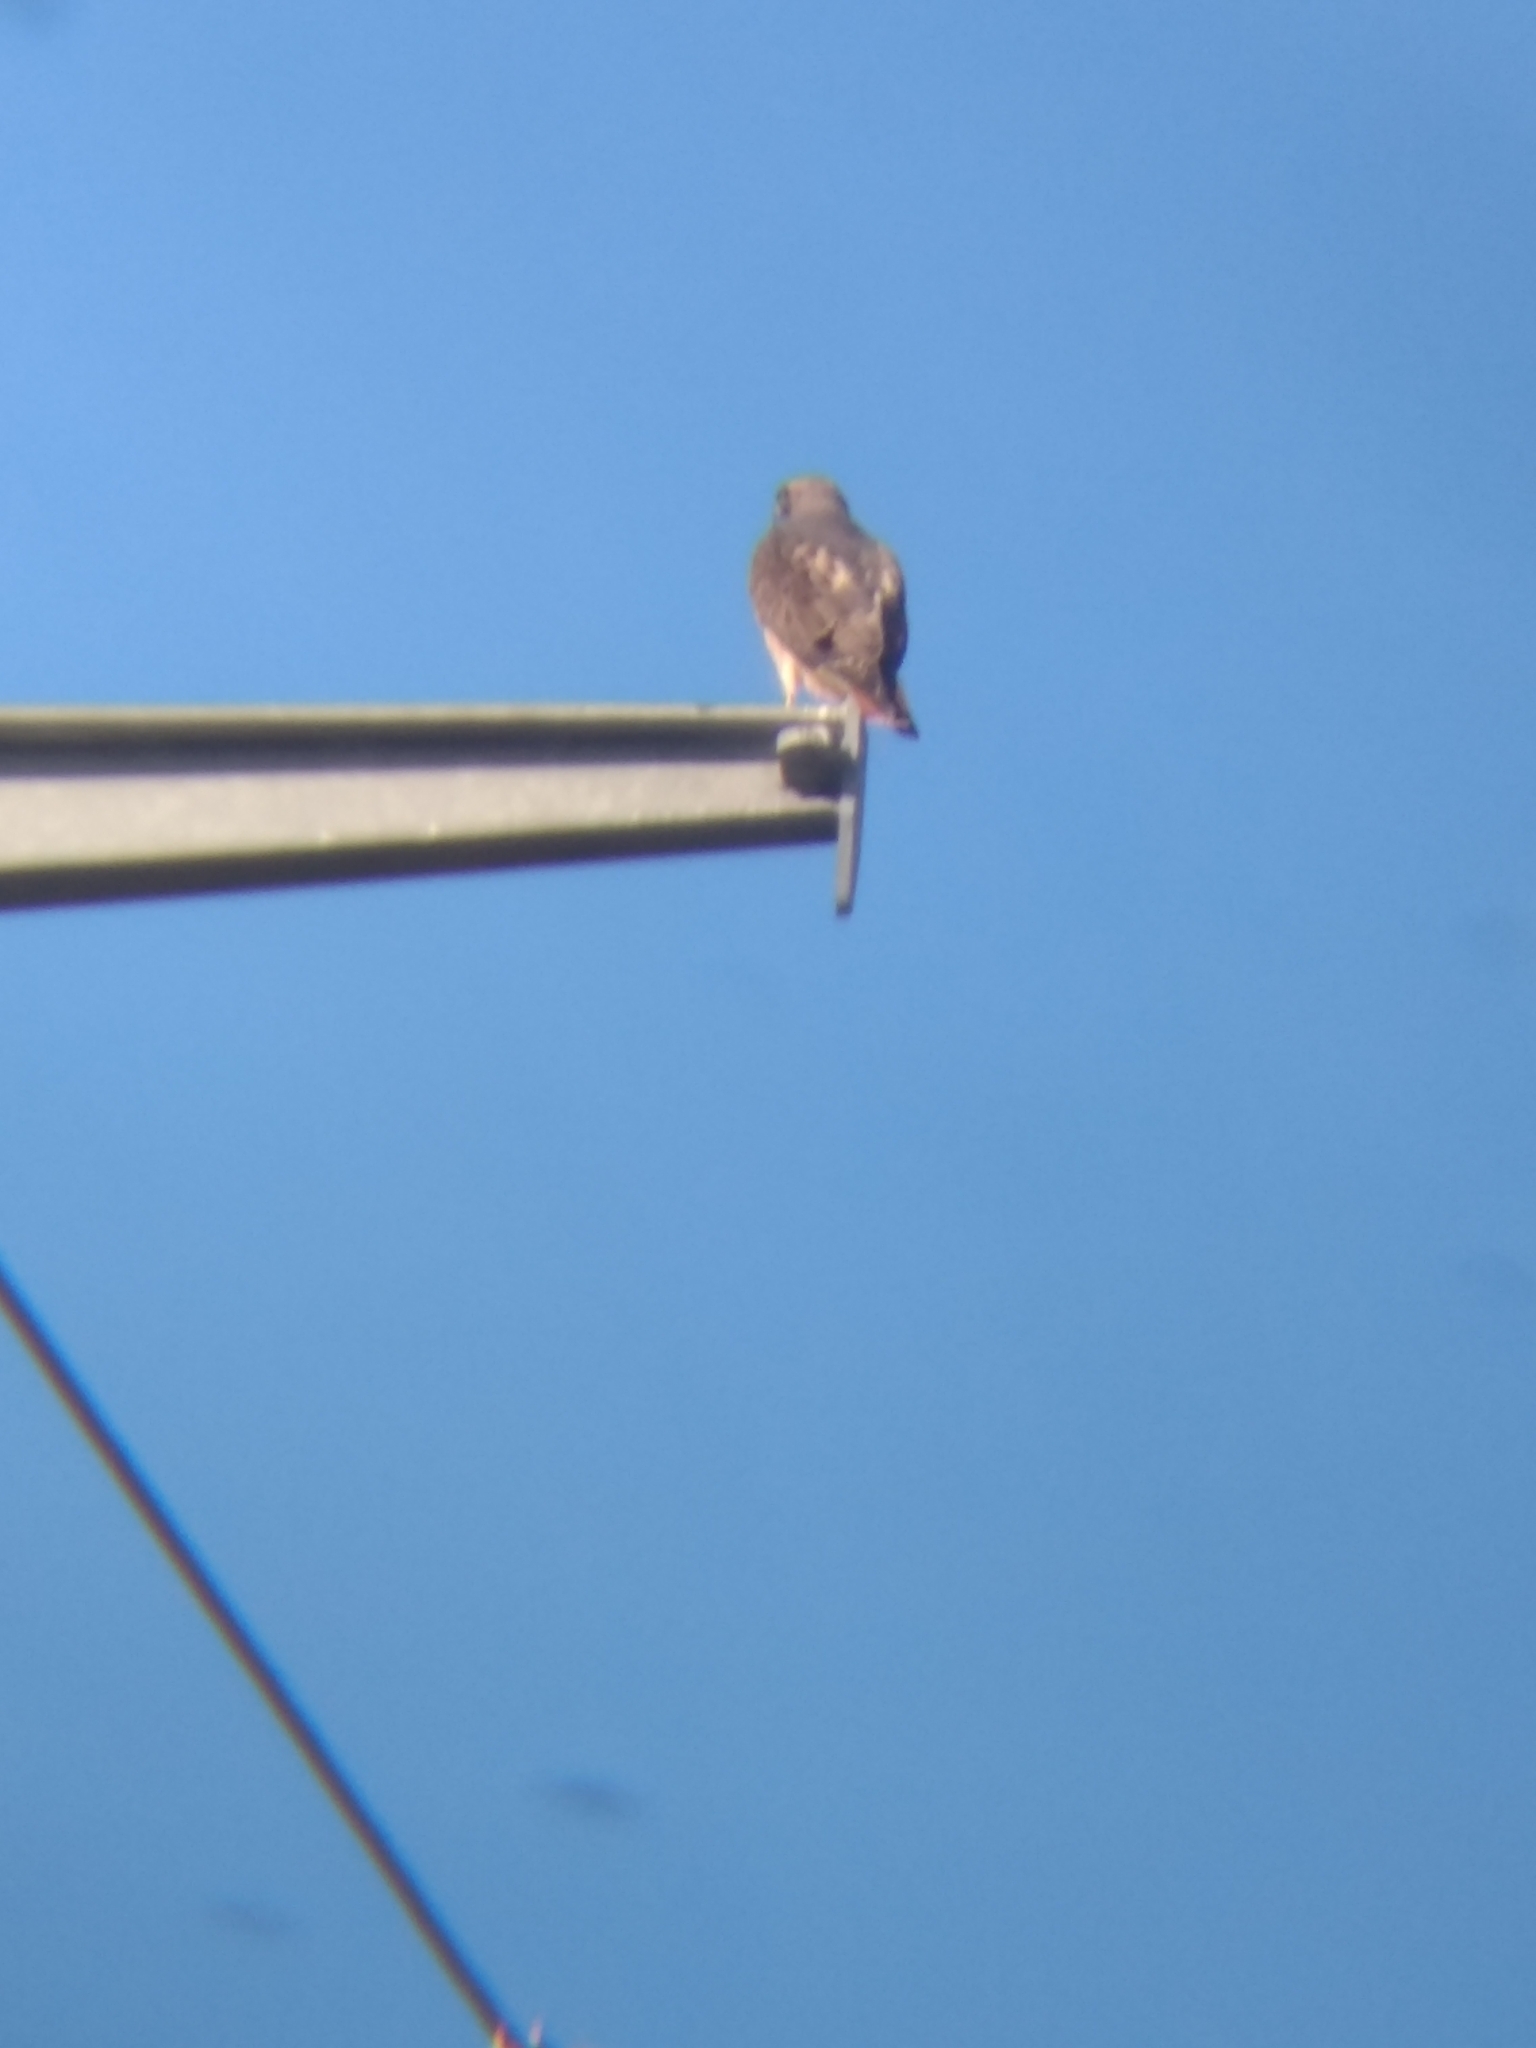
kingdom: Animalia
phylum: Chordata
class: Aves
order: Accipitriformes
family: Accipitridae
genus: Buteo
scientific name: Buteo jamaicensis
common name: Red-tailed hawk
